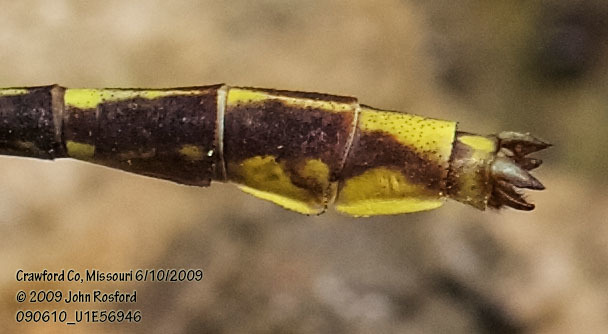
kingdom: Animalia
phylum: Arthropoda
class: Insecta
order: Odonata
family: Gomphidae
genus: Phanogomphus
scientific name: Phanogomphus exilis
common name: Lancet clubtail
